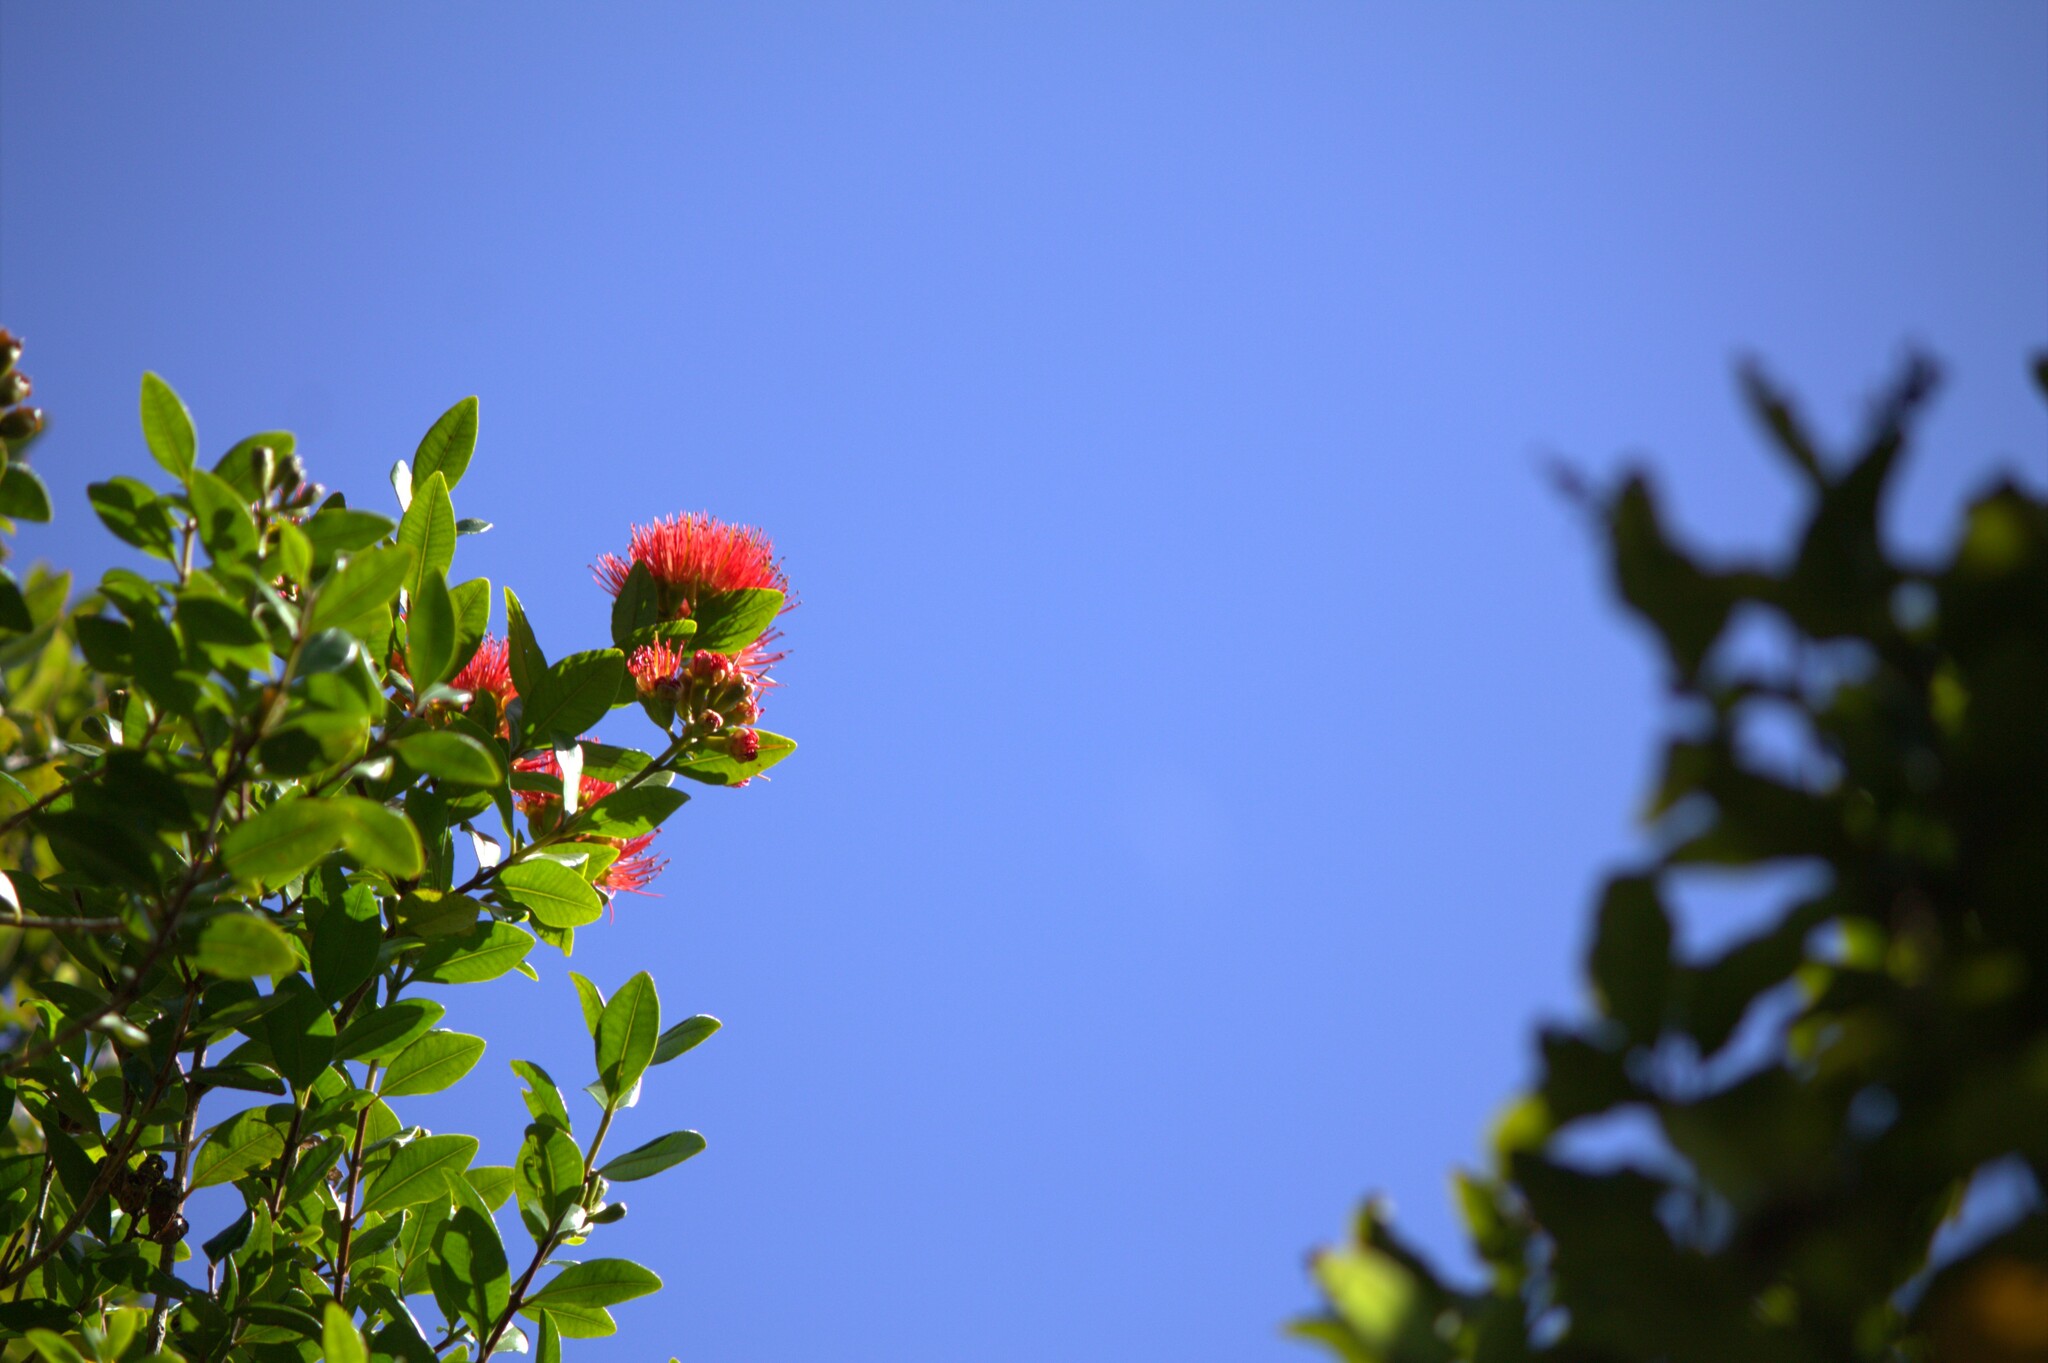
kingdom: Plantae
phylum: Tracheophyta
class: Magnoliopsida
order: Myrtales
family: Myrtaceae
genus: Metrosideros
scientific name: Metrosideros fulgens
